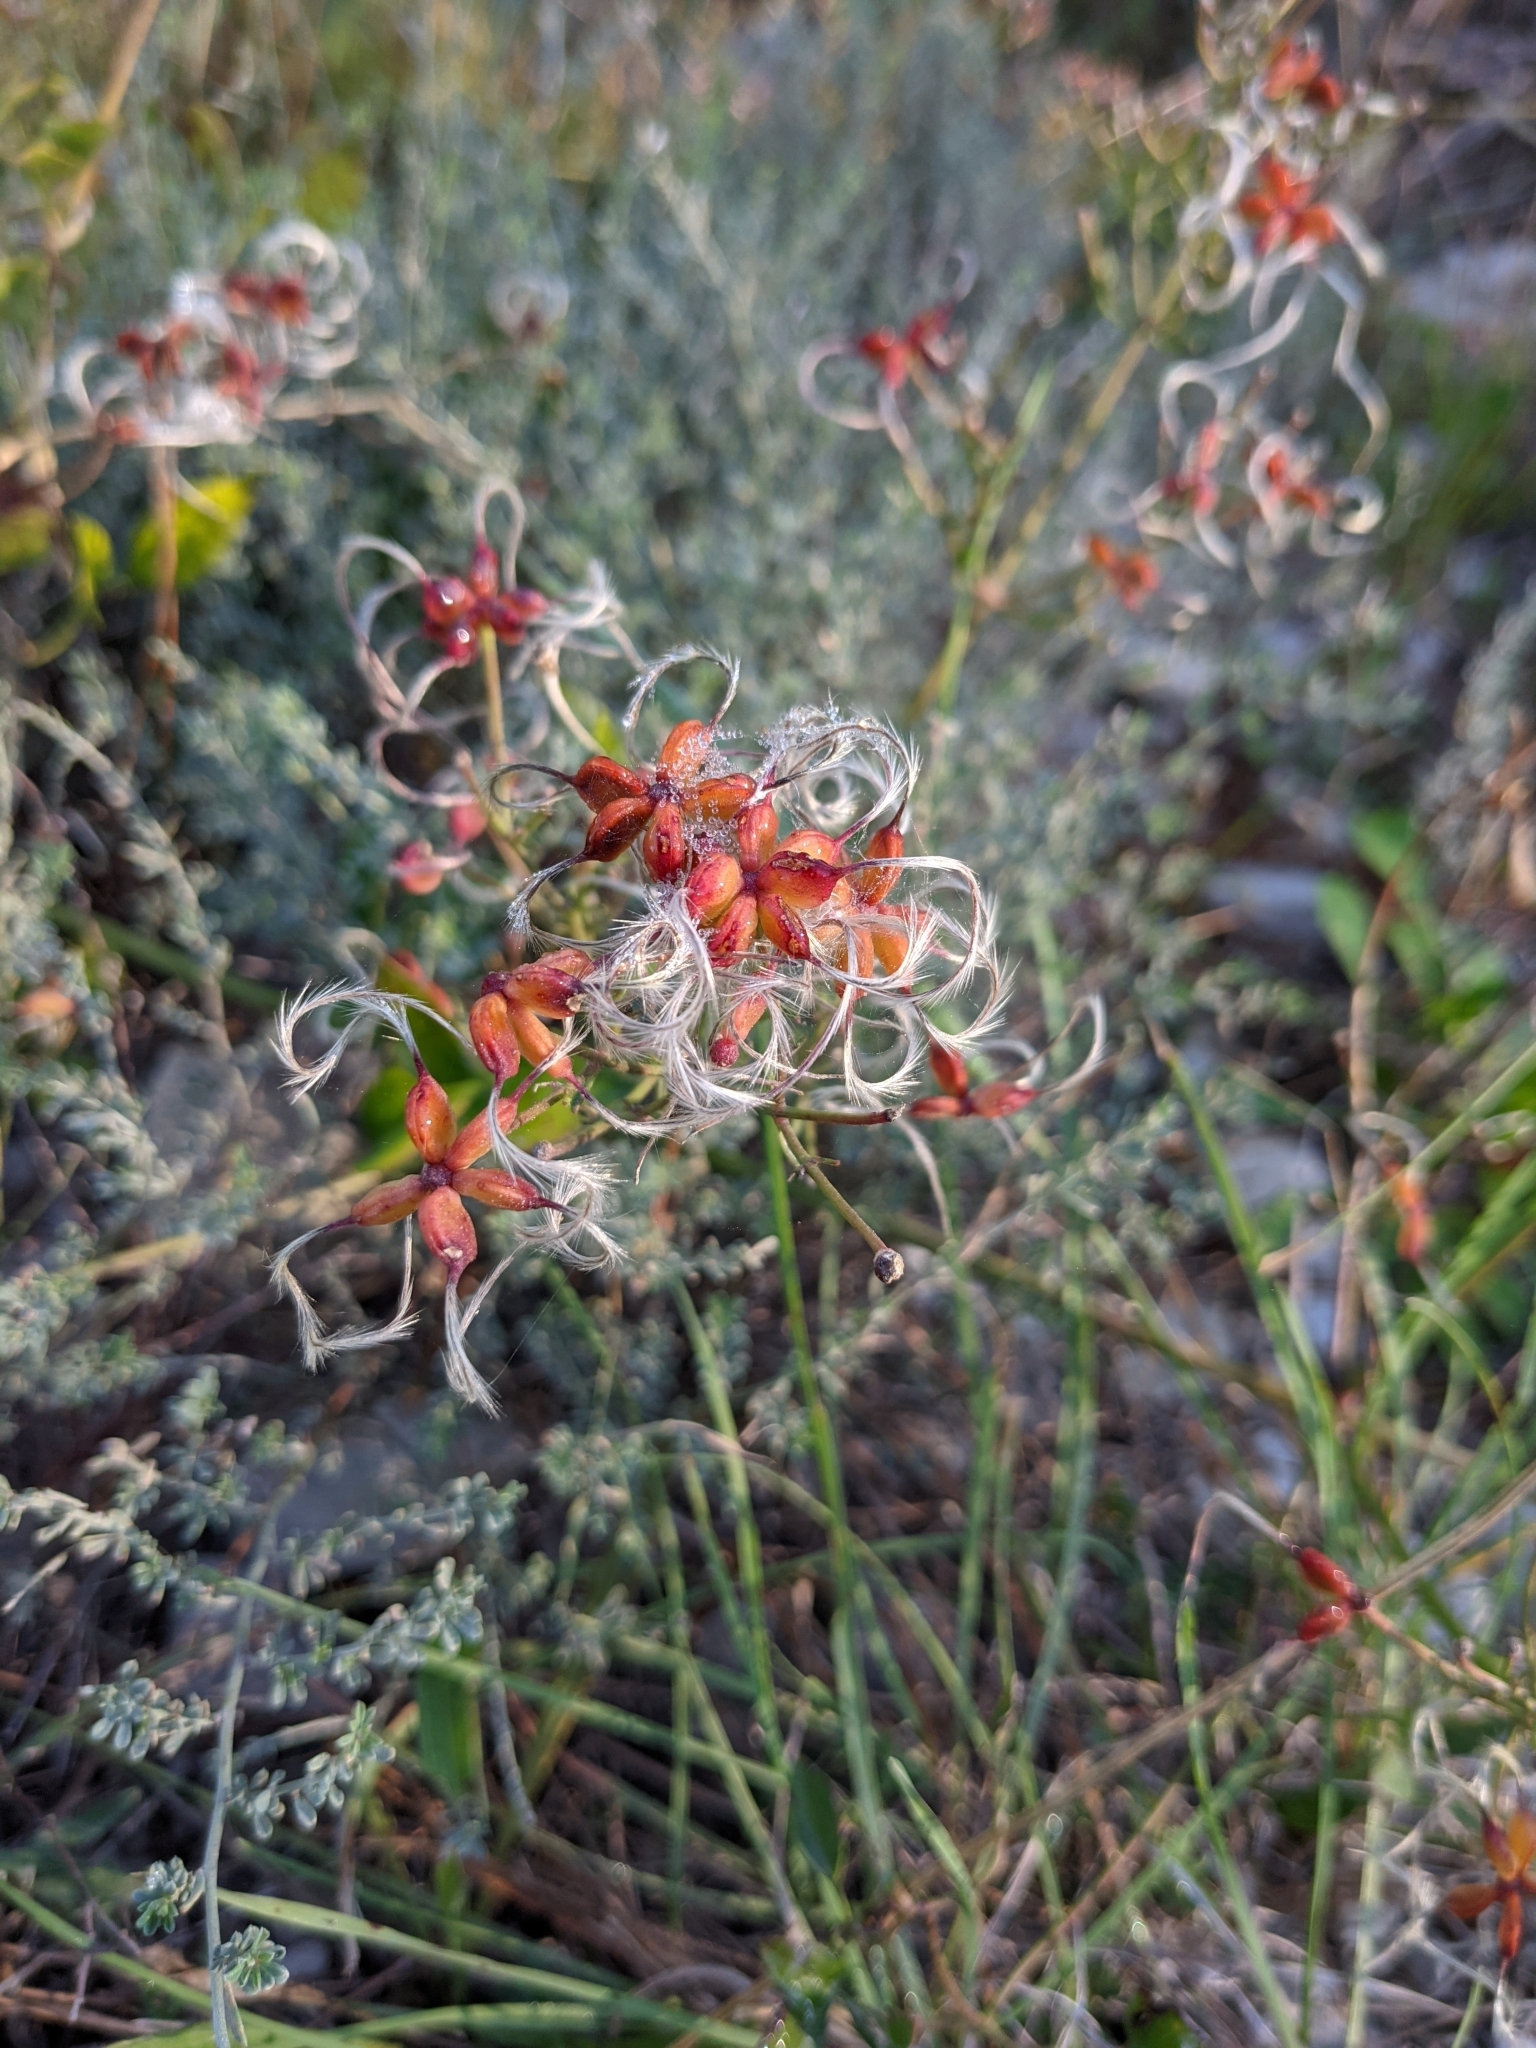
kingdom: Plantae
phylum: Tracheophyta
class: Magnoliopsida
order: Ranunculales
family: Ranunculaceae
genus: Clematis
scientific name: Clematis flammula
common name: Virgin's-bower
